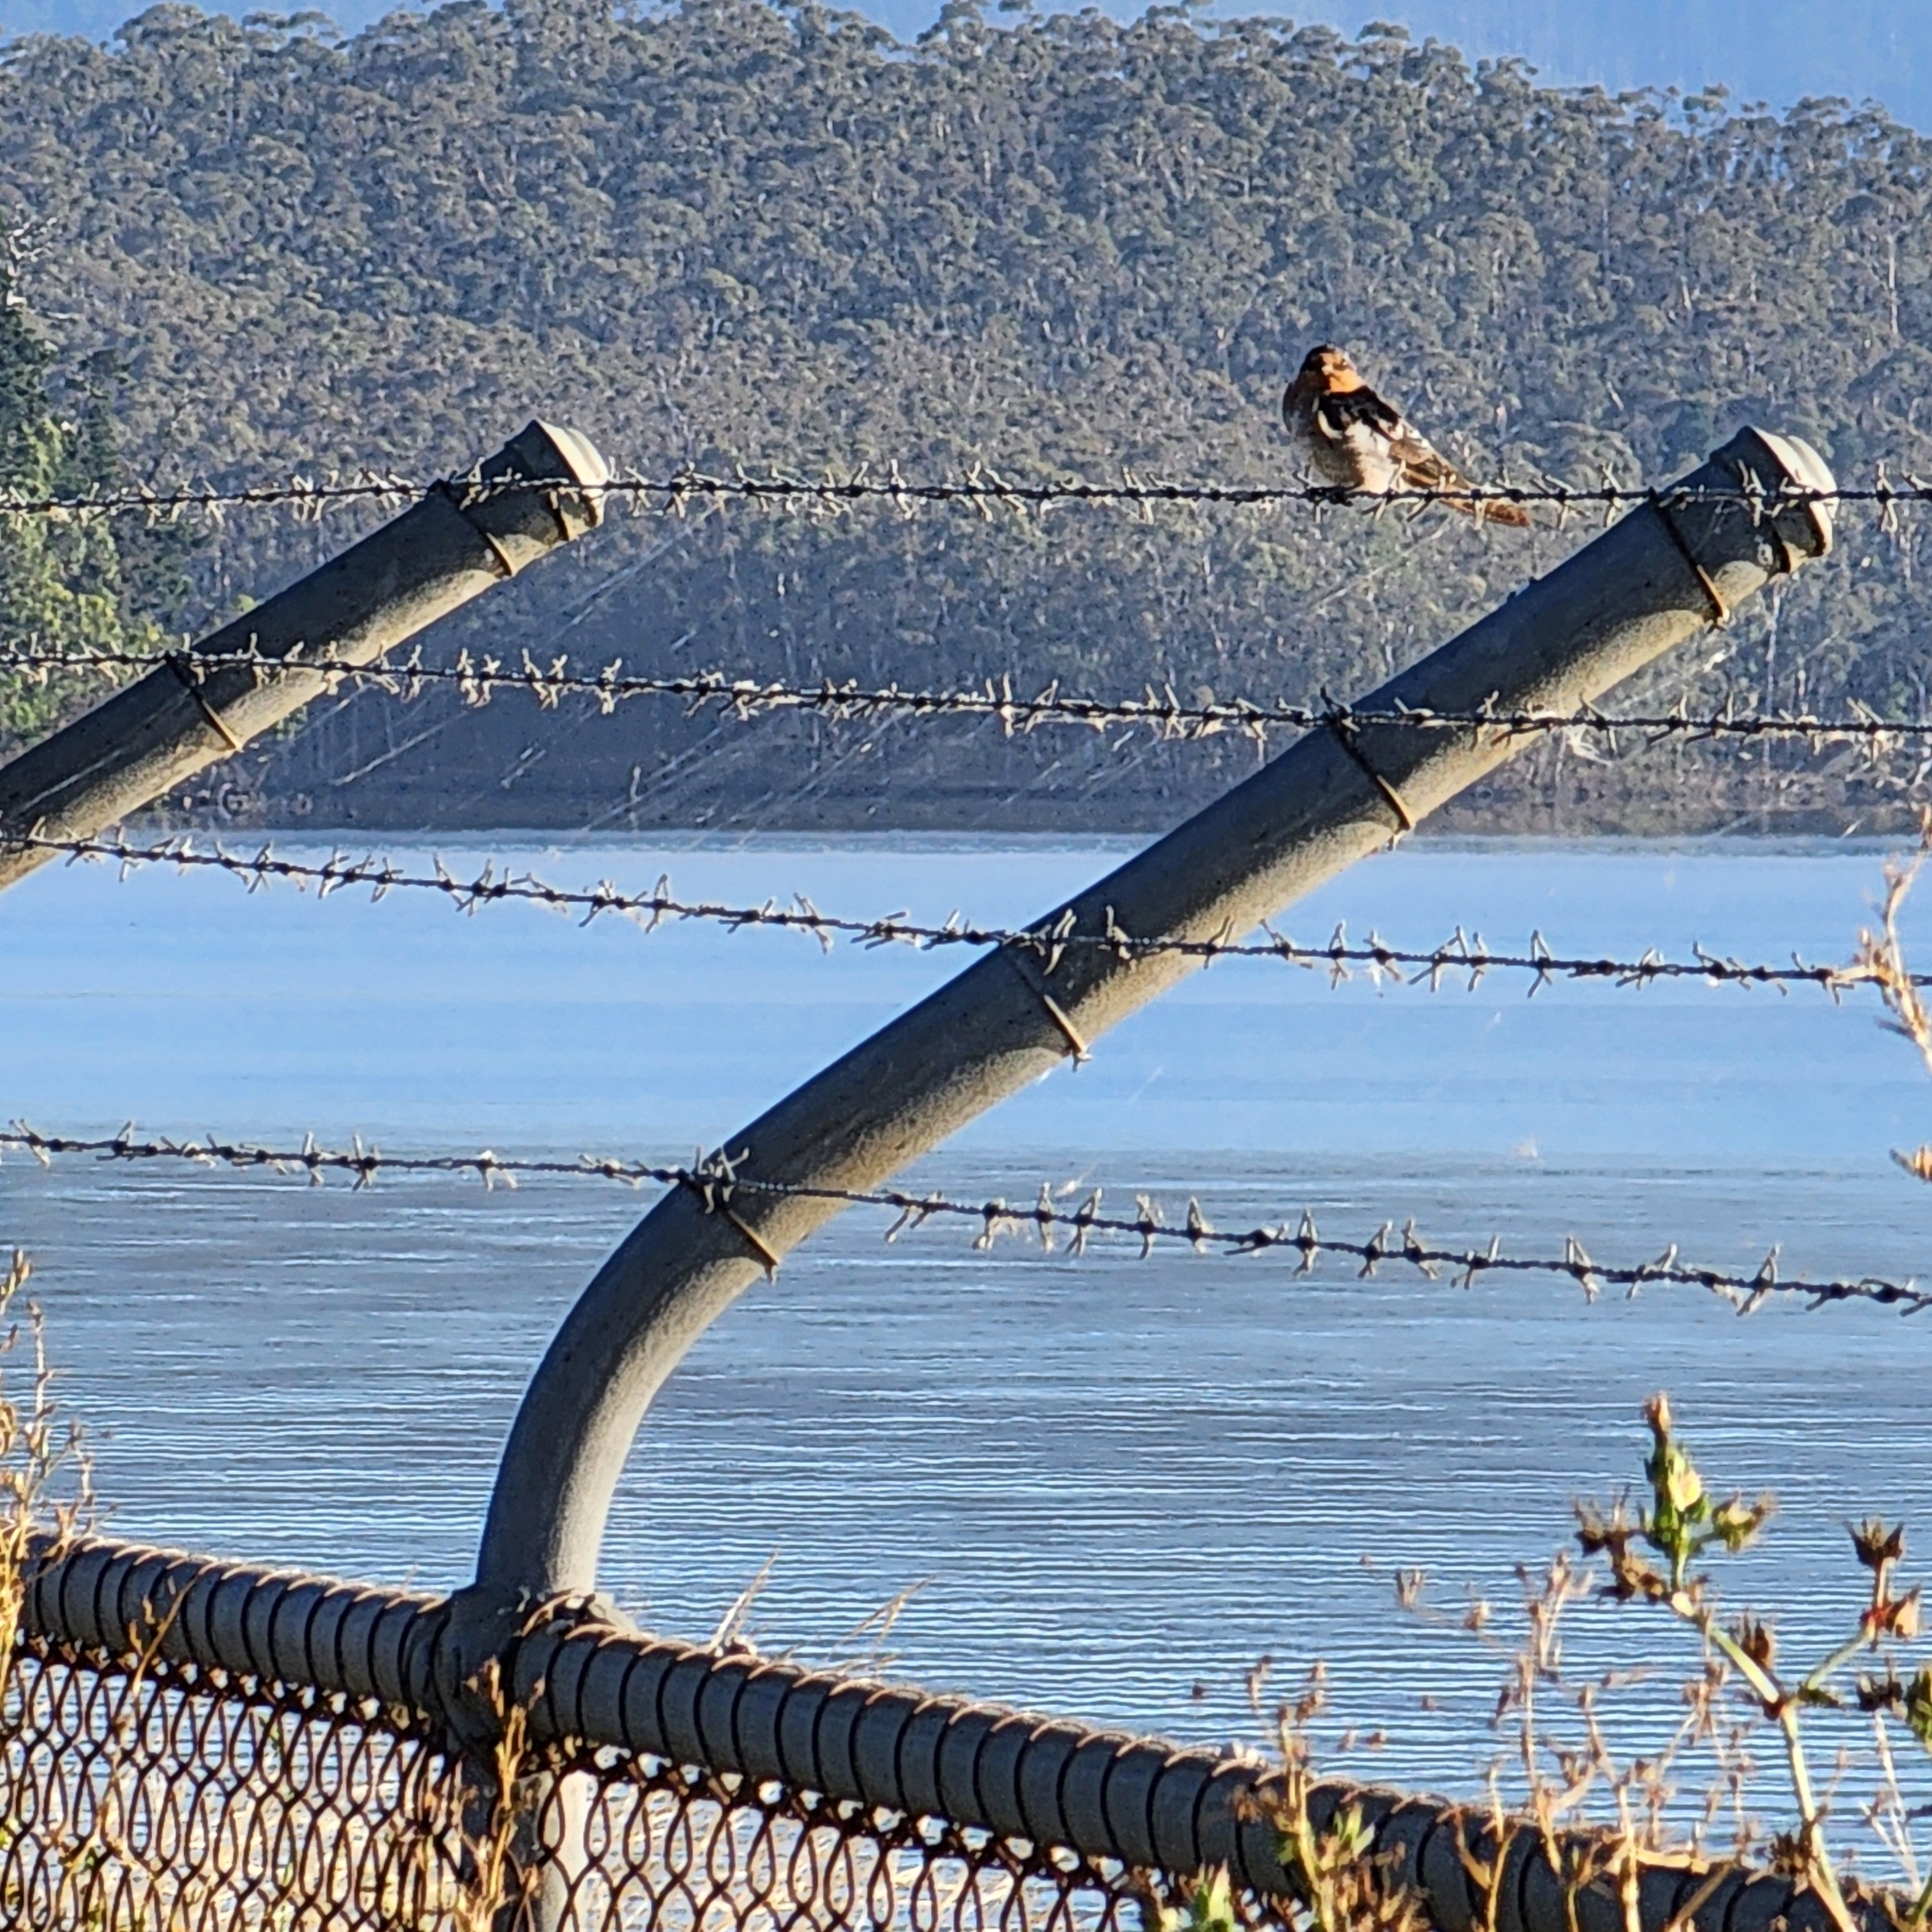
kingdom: Animalia
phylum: Chordata
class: Aves
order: Passeriformes
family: Hirundinidae
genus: Hirundo
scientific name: Hirundo neoxena
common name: Welcome swallow
